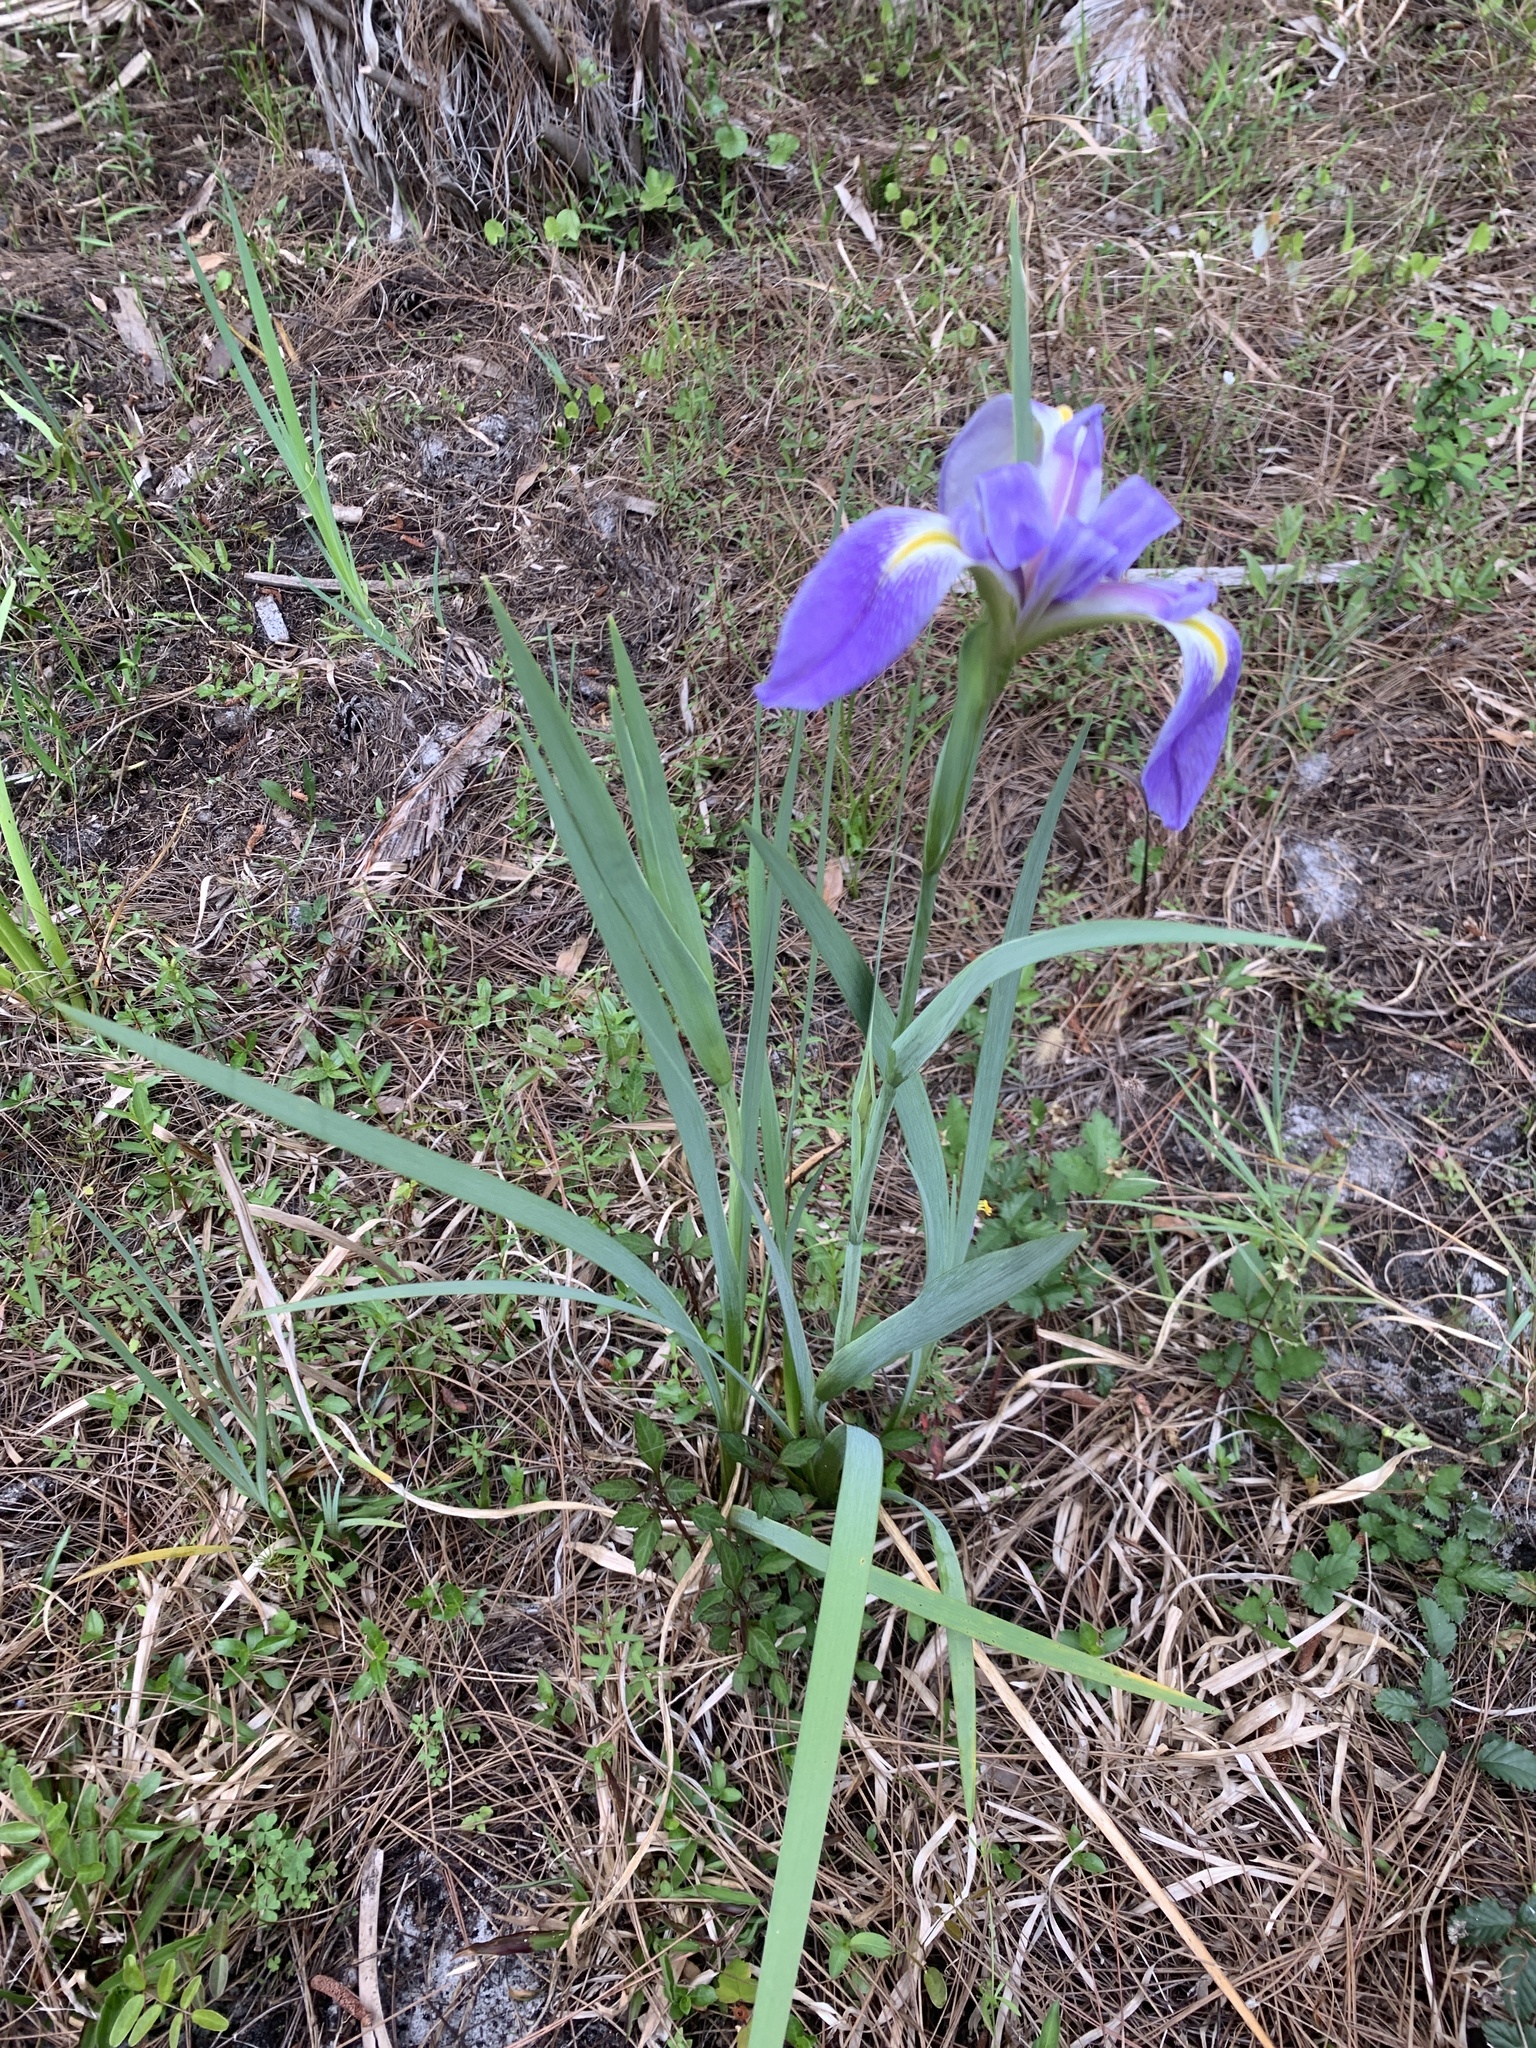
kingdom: Plantae
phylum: Tracheophyta
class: Liliopsida
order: Asparagales
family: Iridaceae
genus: Iris
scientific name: Iris savannarum
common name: Prairie iris
